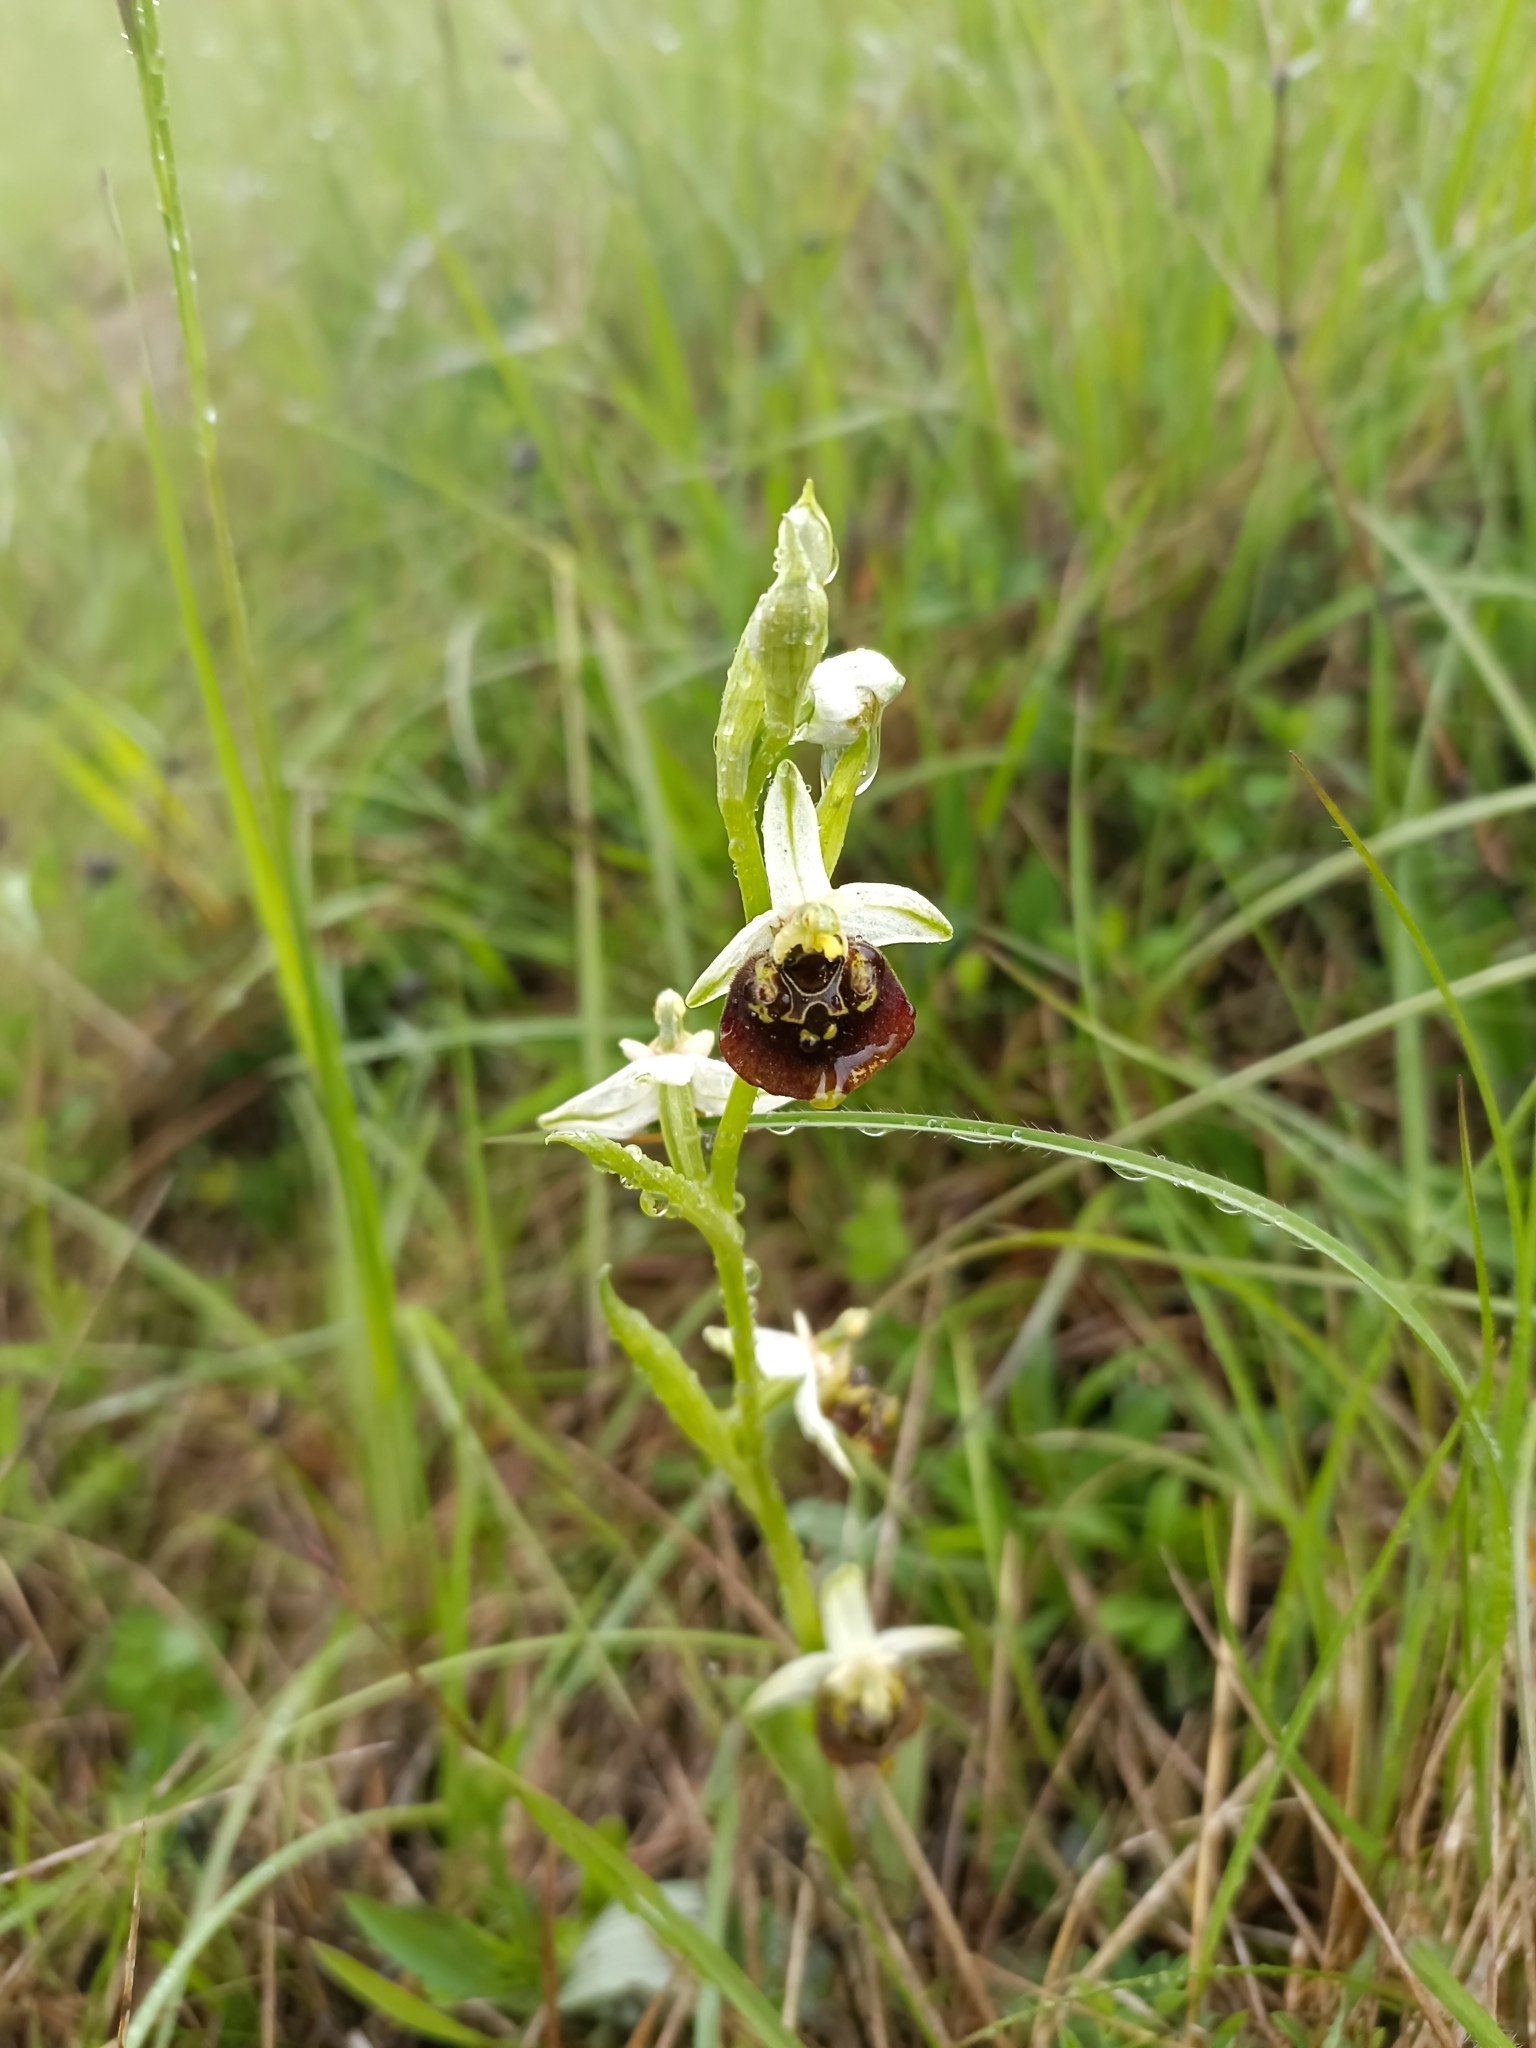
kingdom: Plantae
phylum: Tracheophyta
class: Liliopsida
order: Asparagales
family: Orchidaceae
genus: Ophrys
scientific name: Ophrys holosericea
